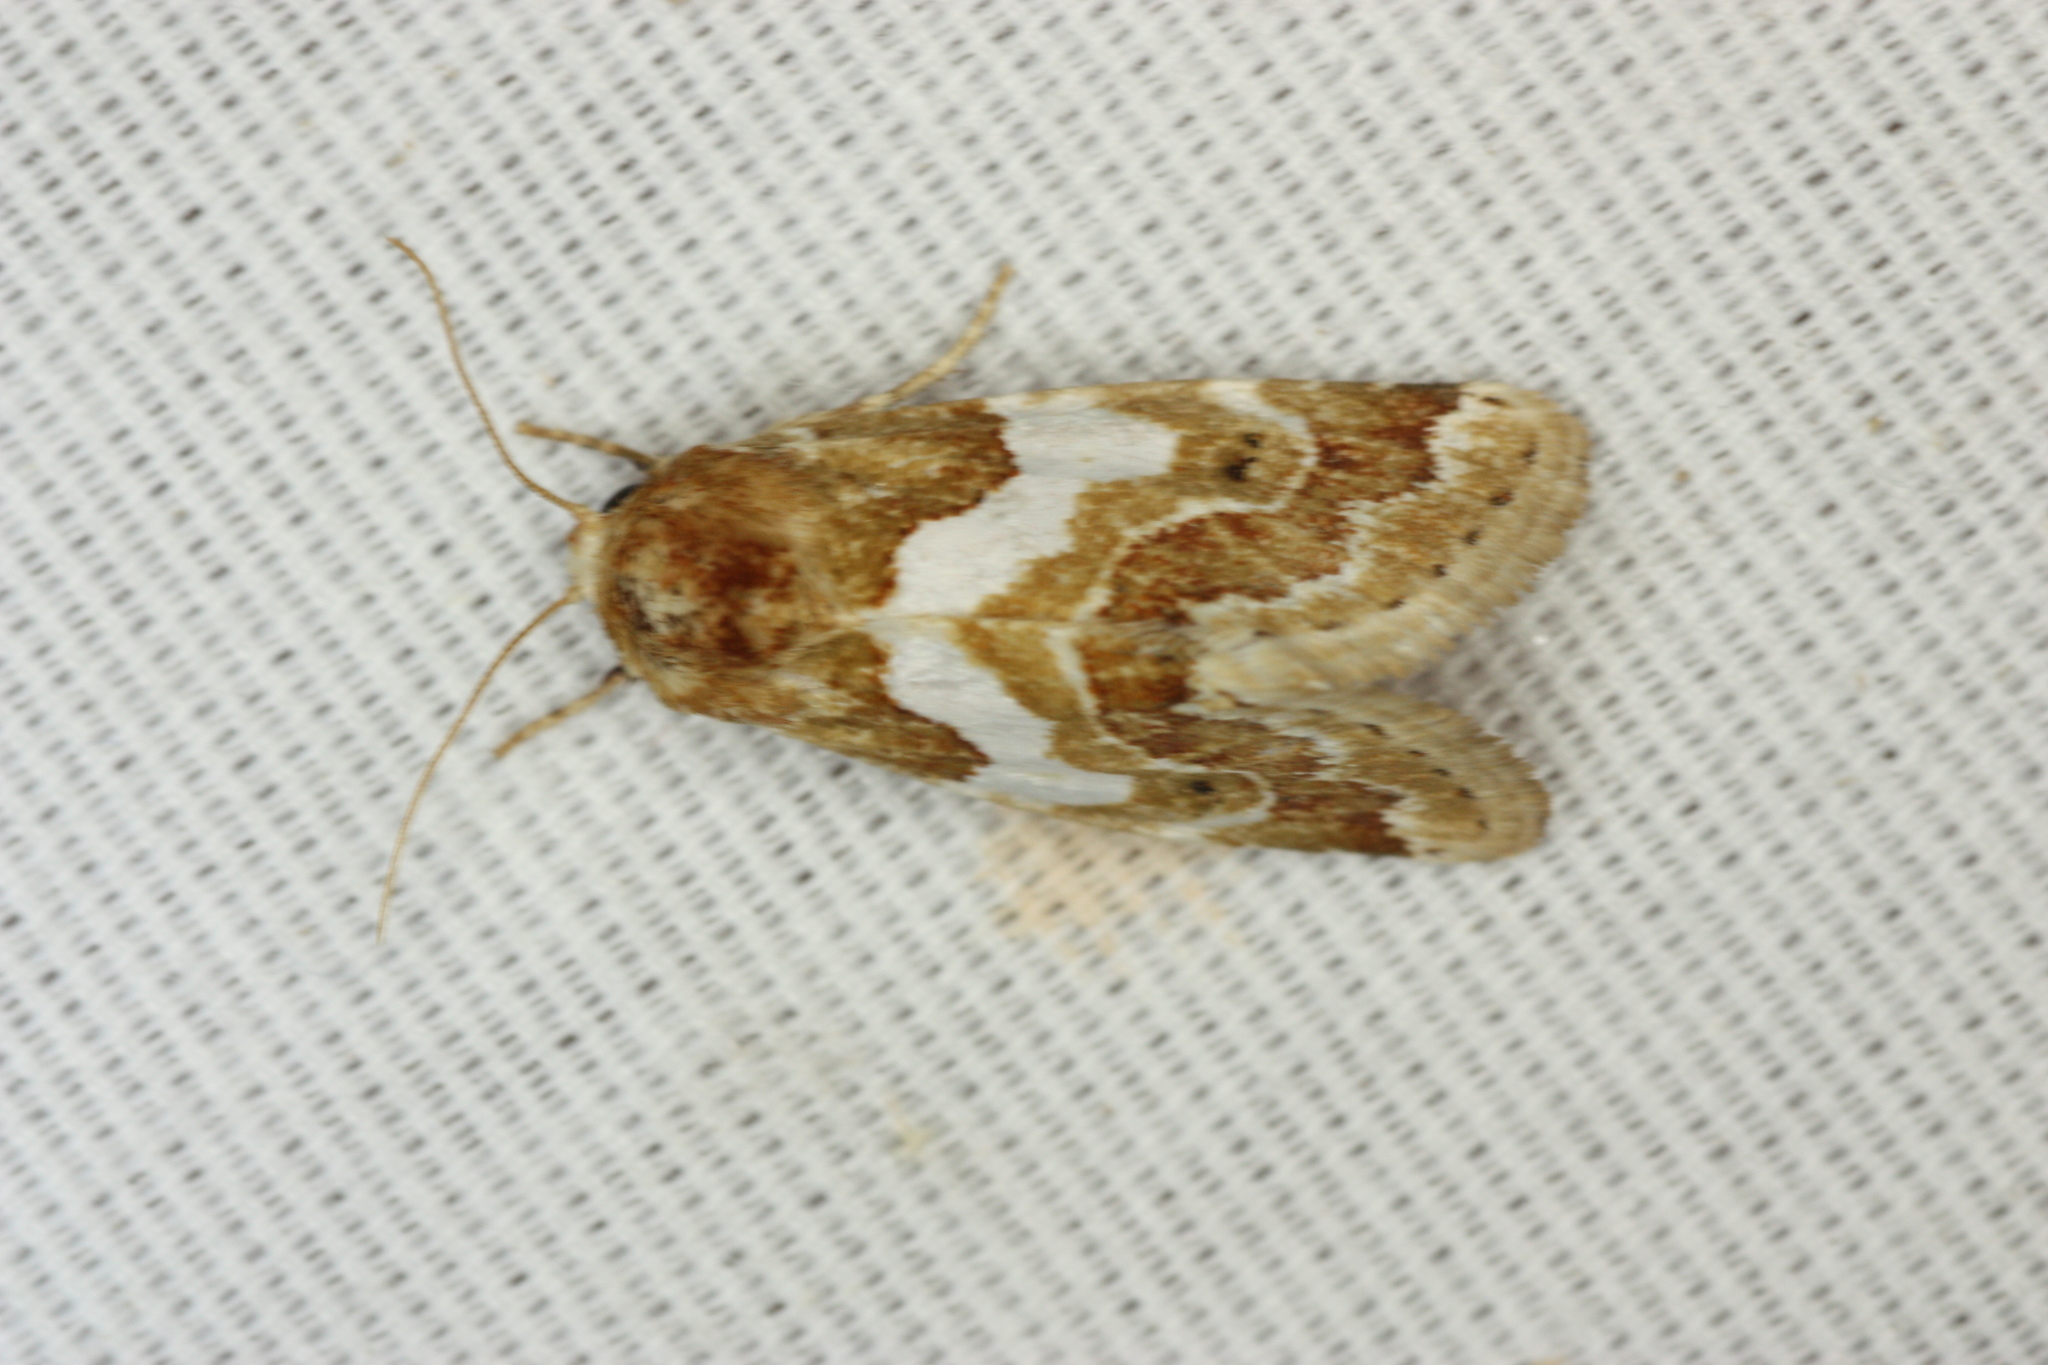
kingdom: Animalia
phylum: Arthropoda
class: Insecta
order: Lepidoptera
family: Noctuidae
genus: Schinia
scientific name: Schinia argentifascia
